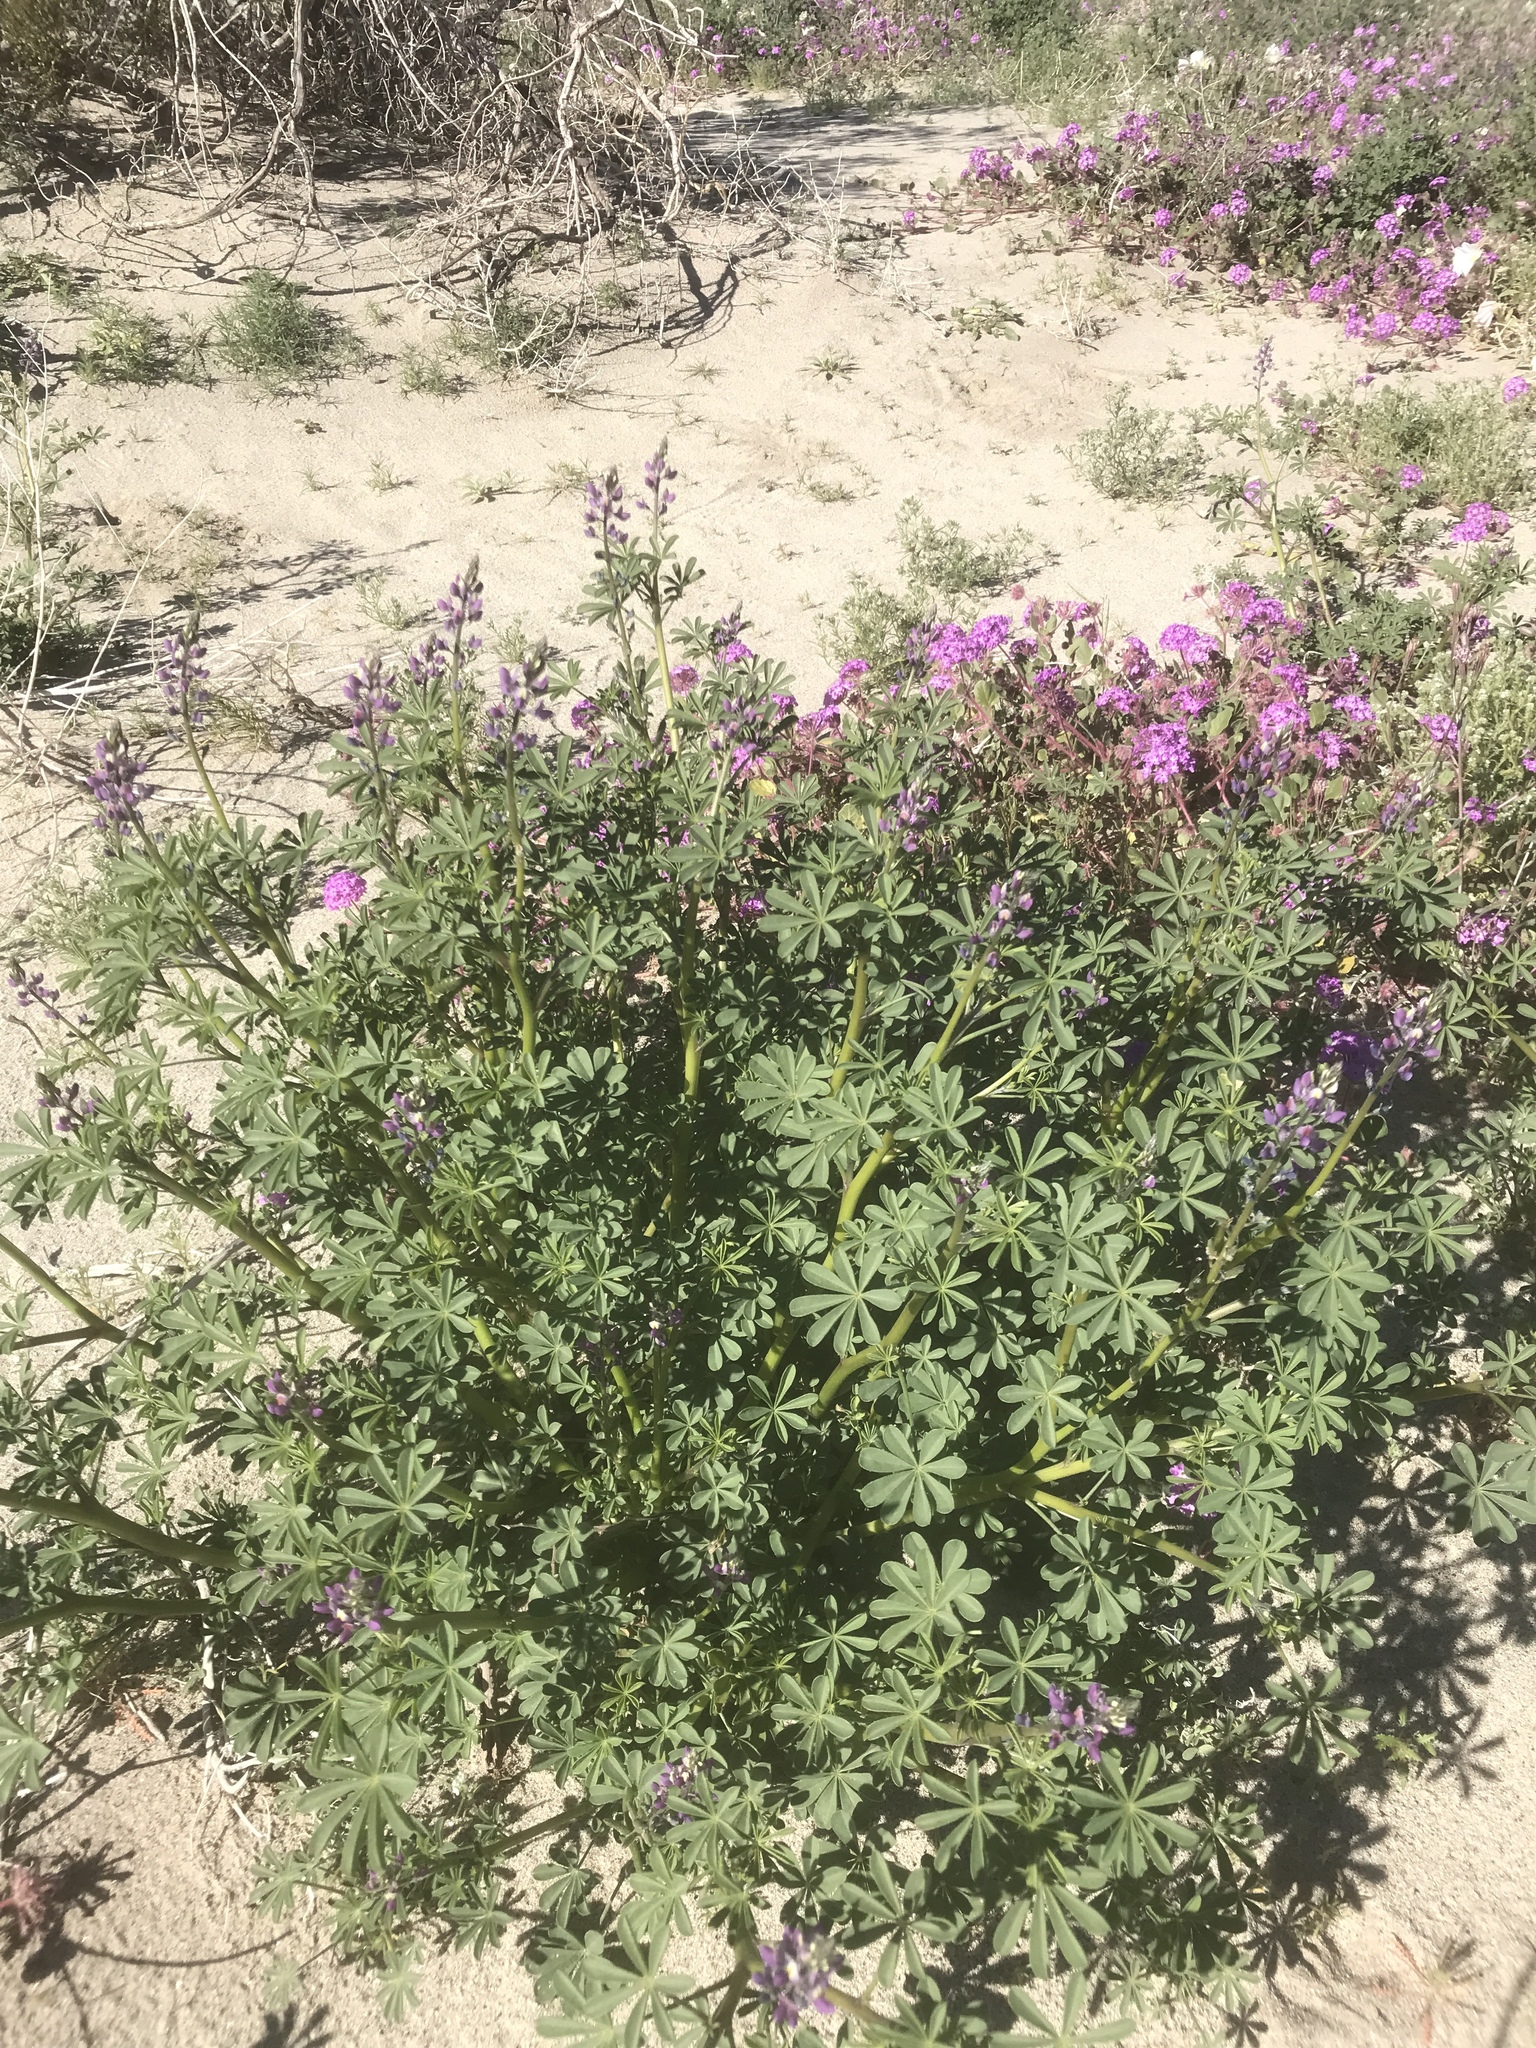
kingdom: Plantae
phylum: Tracheophyta
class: Magnoliopsida
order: Fabales
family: Fabaceae
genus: Lupinus
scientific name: Lupinus arizonicus
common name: Arizona lupine
